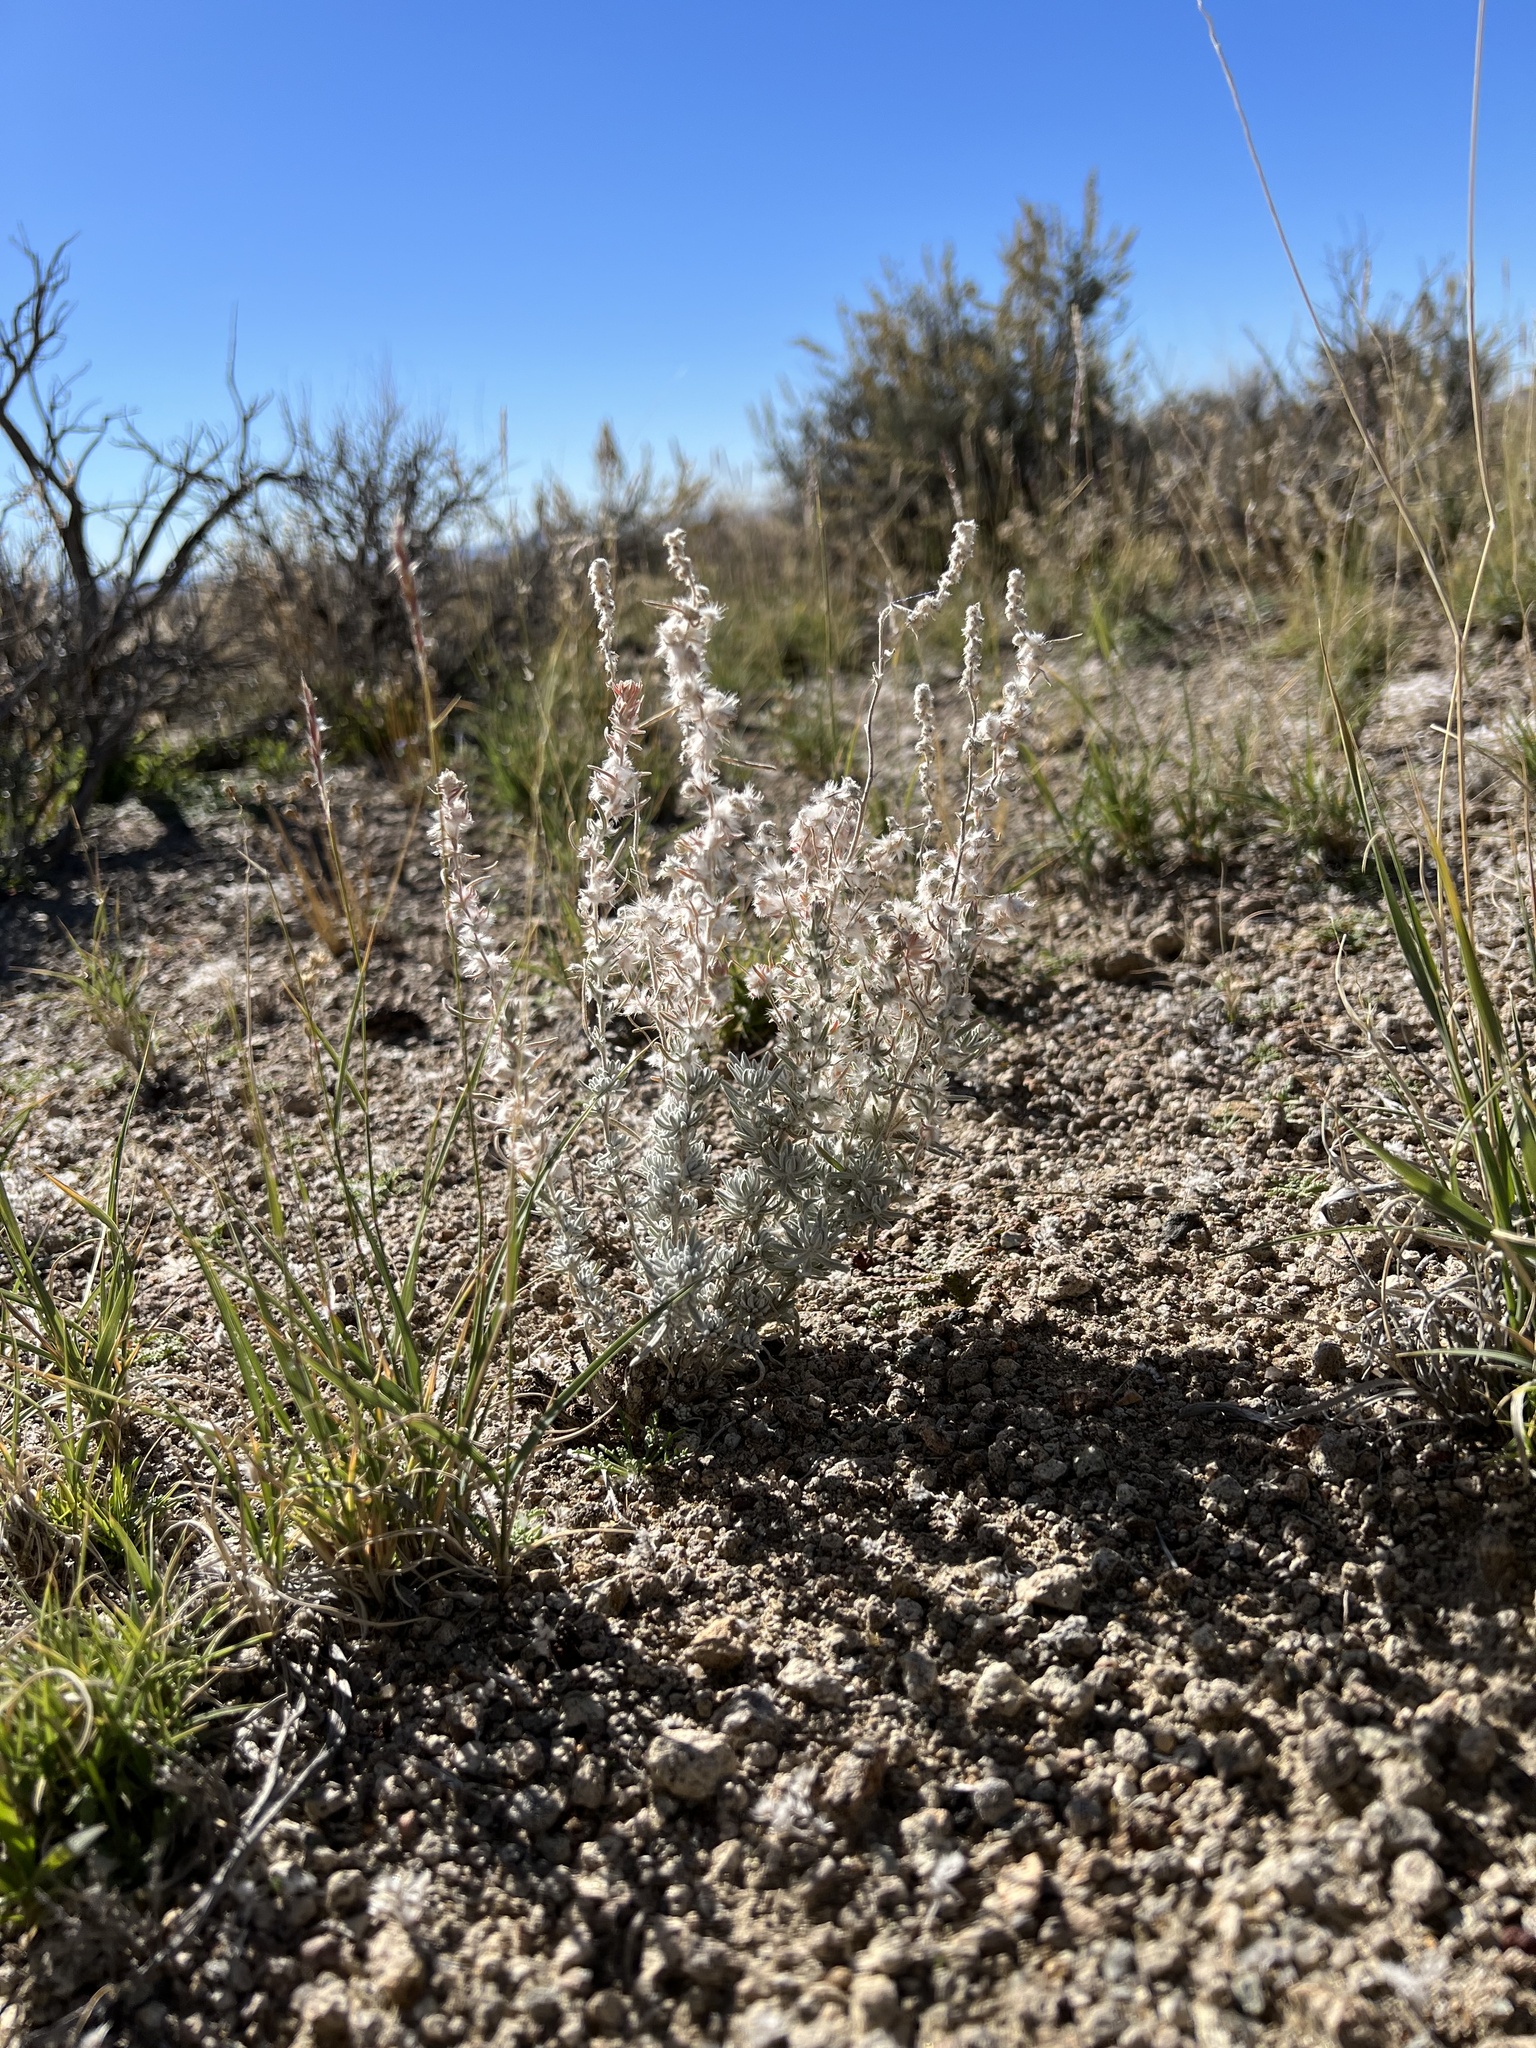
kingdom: Plantae
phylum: Tracheophyta
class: Magnoliopsida
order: Caryophyllales
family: Amaranthaceae
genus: Krascheninnikovia
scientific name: Krascheninnikovia lanata
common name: Winterfat
